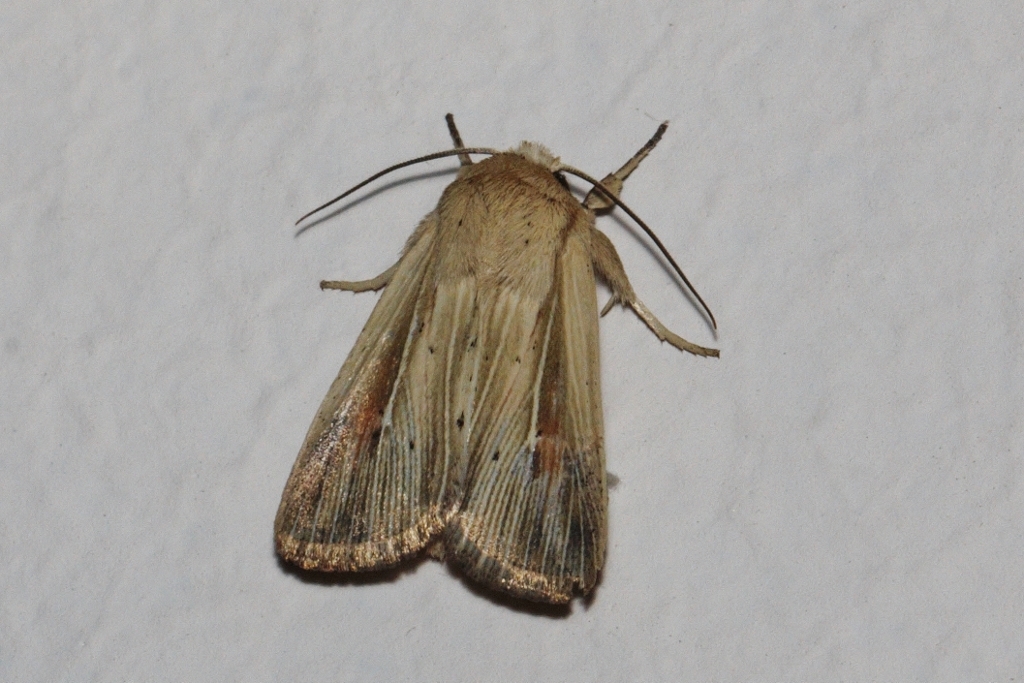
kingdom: Animalia
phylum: Arthropoda
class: Insecta
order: Lepidoptera
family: Noctuidae
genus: Vietteania
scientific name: Vietteania torrentium
